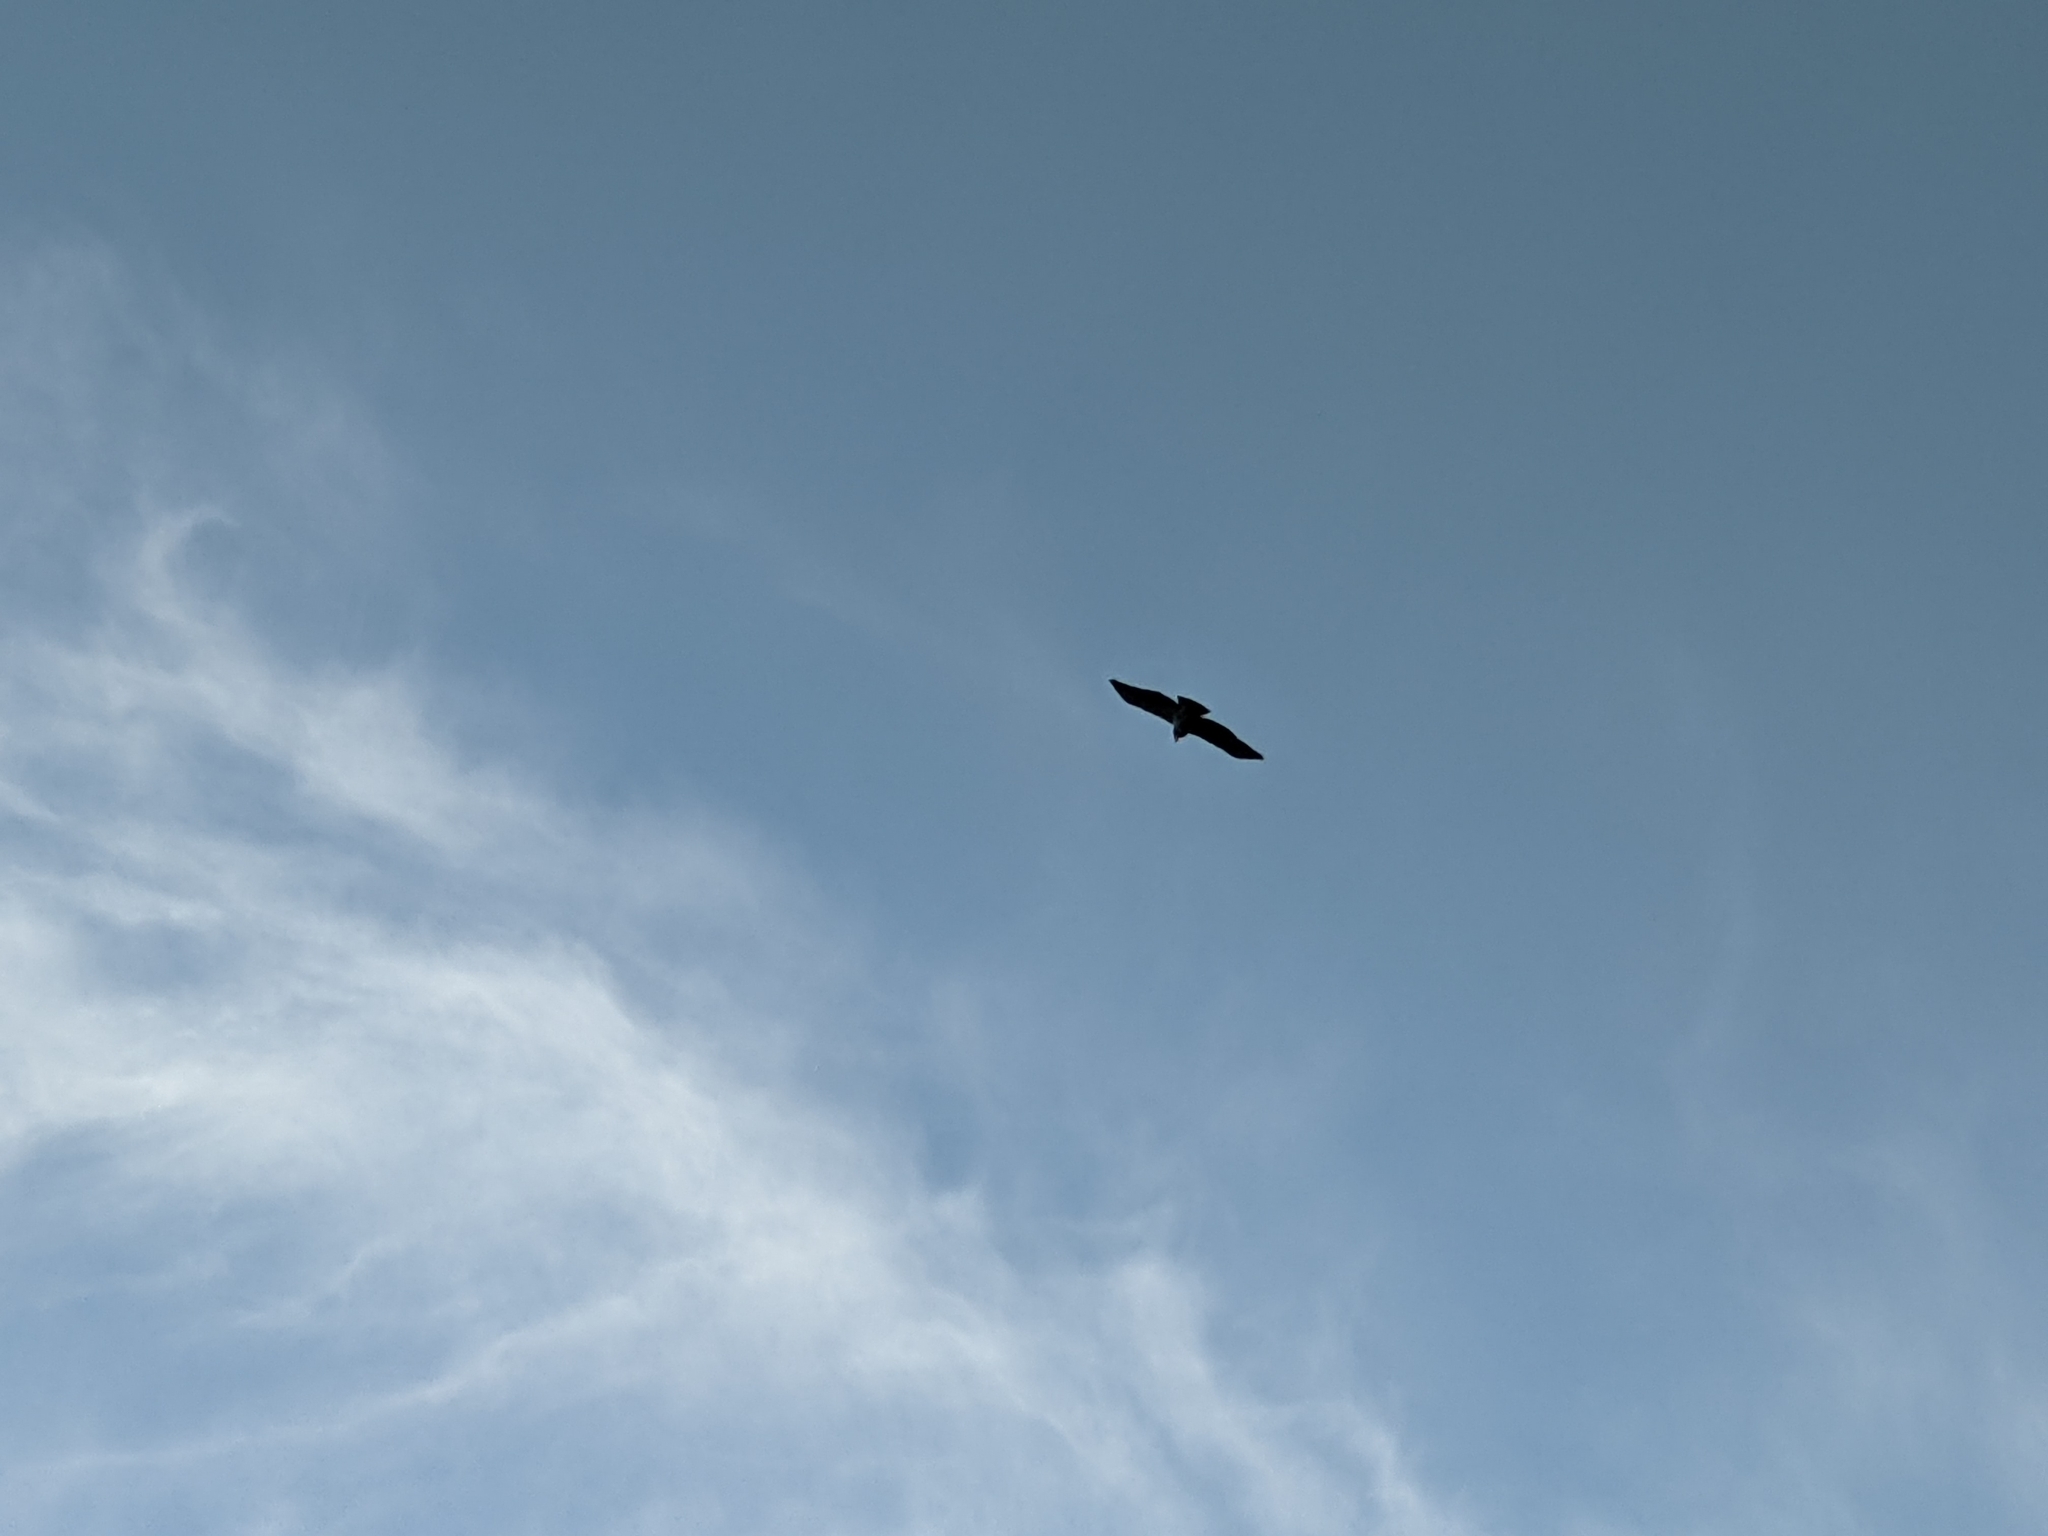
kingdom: Animalia
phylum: Chordata
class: Aves
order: Accipitriformes
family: Accipitridae
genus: Buteo
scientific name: Buteo buteo
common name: Common buzzard
